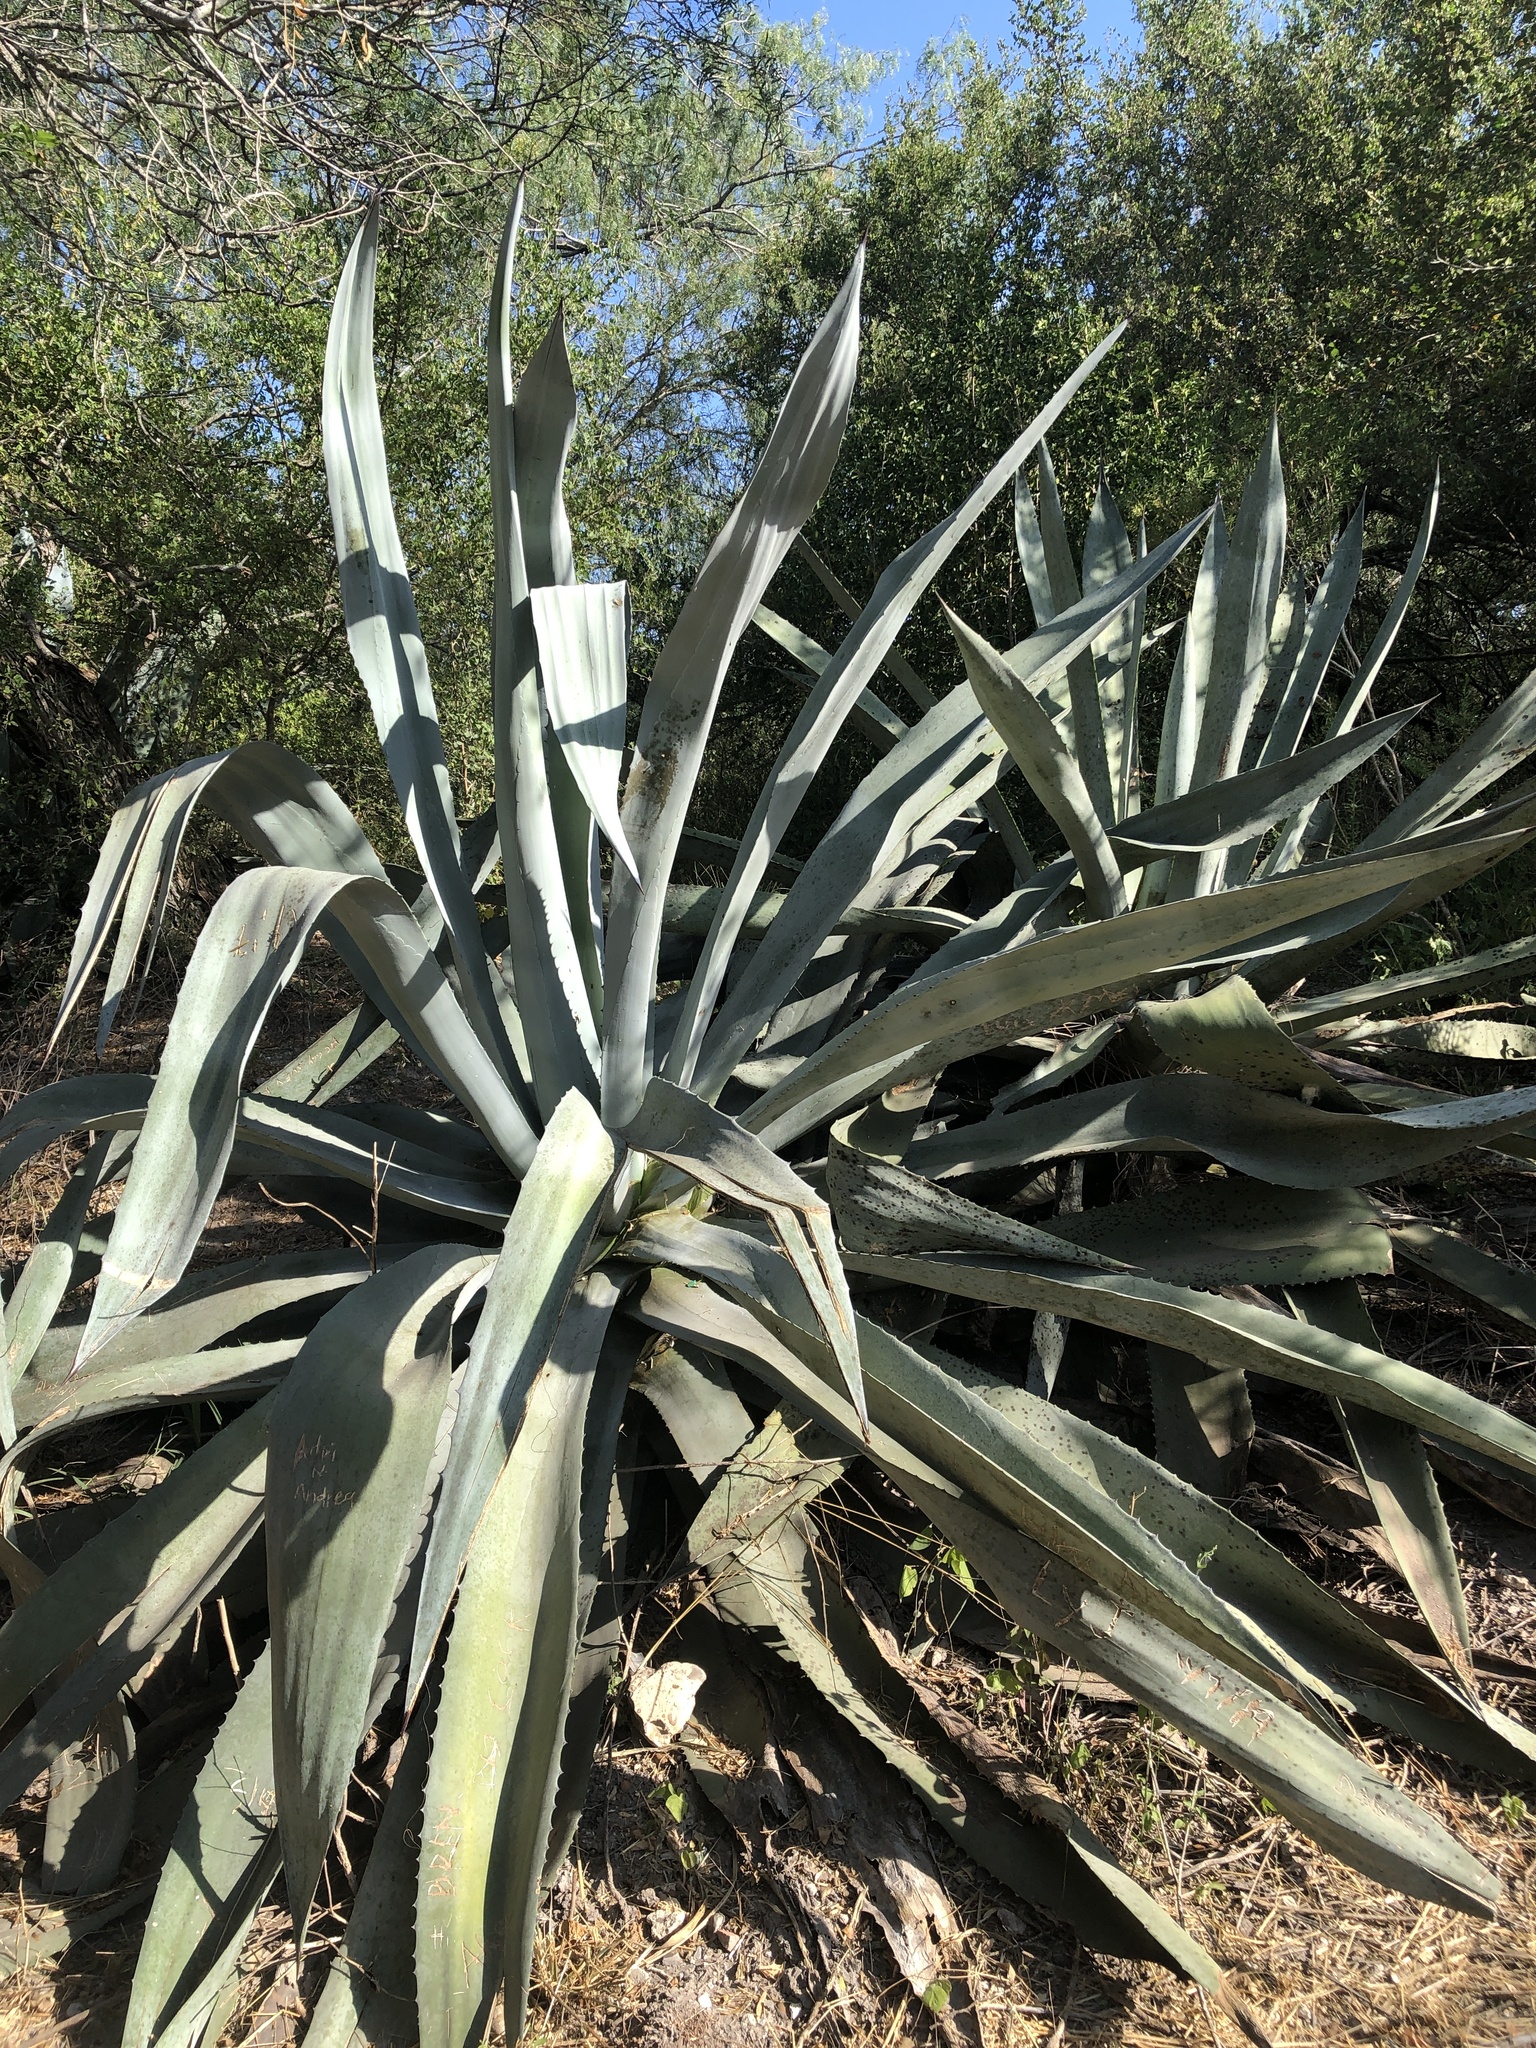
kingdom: Plantae
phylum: Tracheophyta
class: Liliopsida
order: Asparagales
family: Asparagaceae
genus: Agave
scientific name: Agave americana
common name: Centuryplant
